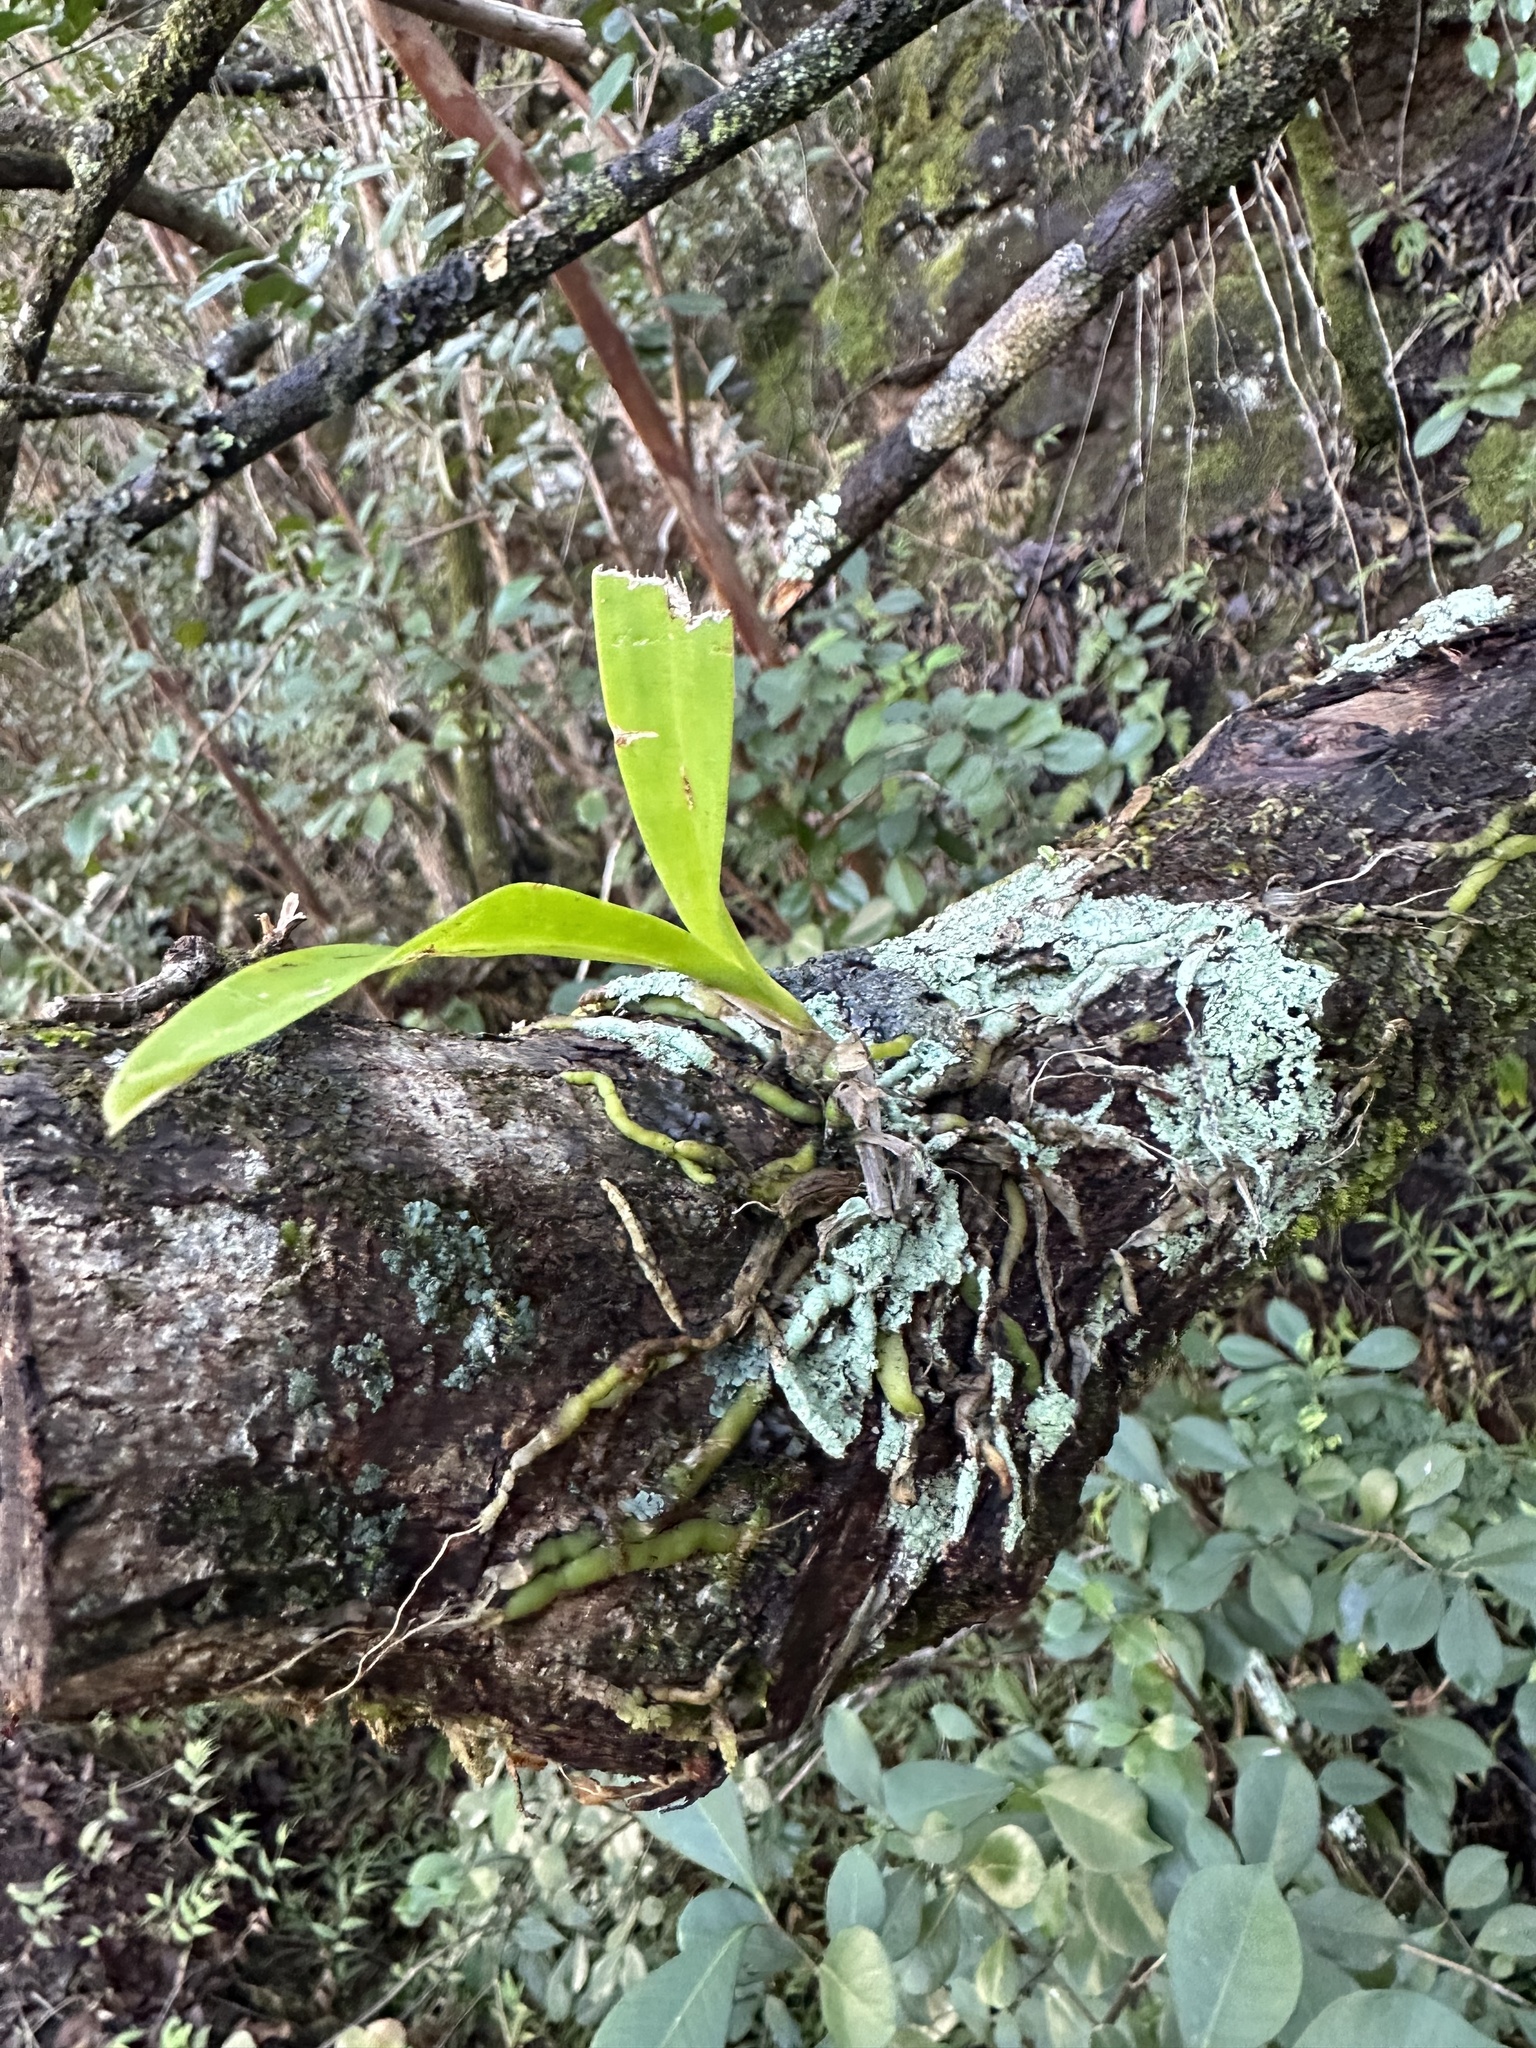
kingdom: Plantae
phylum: Tracheophyta
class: Liliopsida
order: Asparagales
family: Orchidaceae
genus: Polystachya
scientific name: Polystachya concreta
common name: Greater yellowspike orchid
